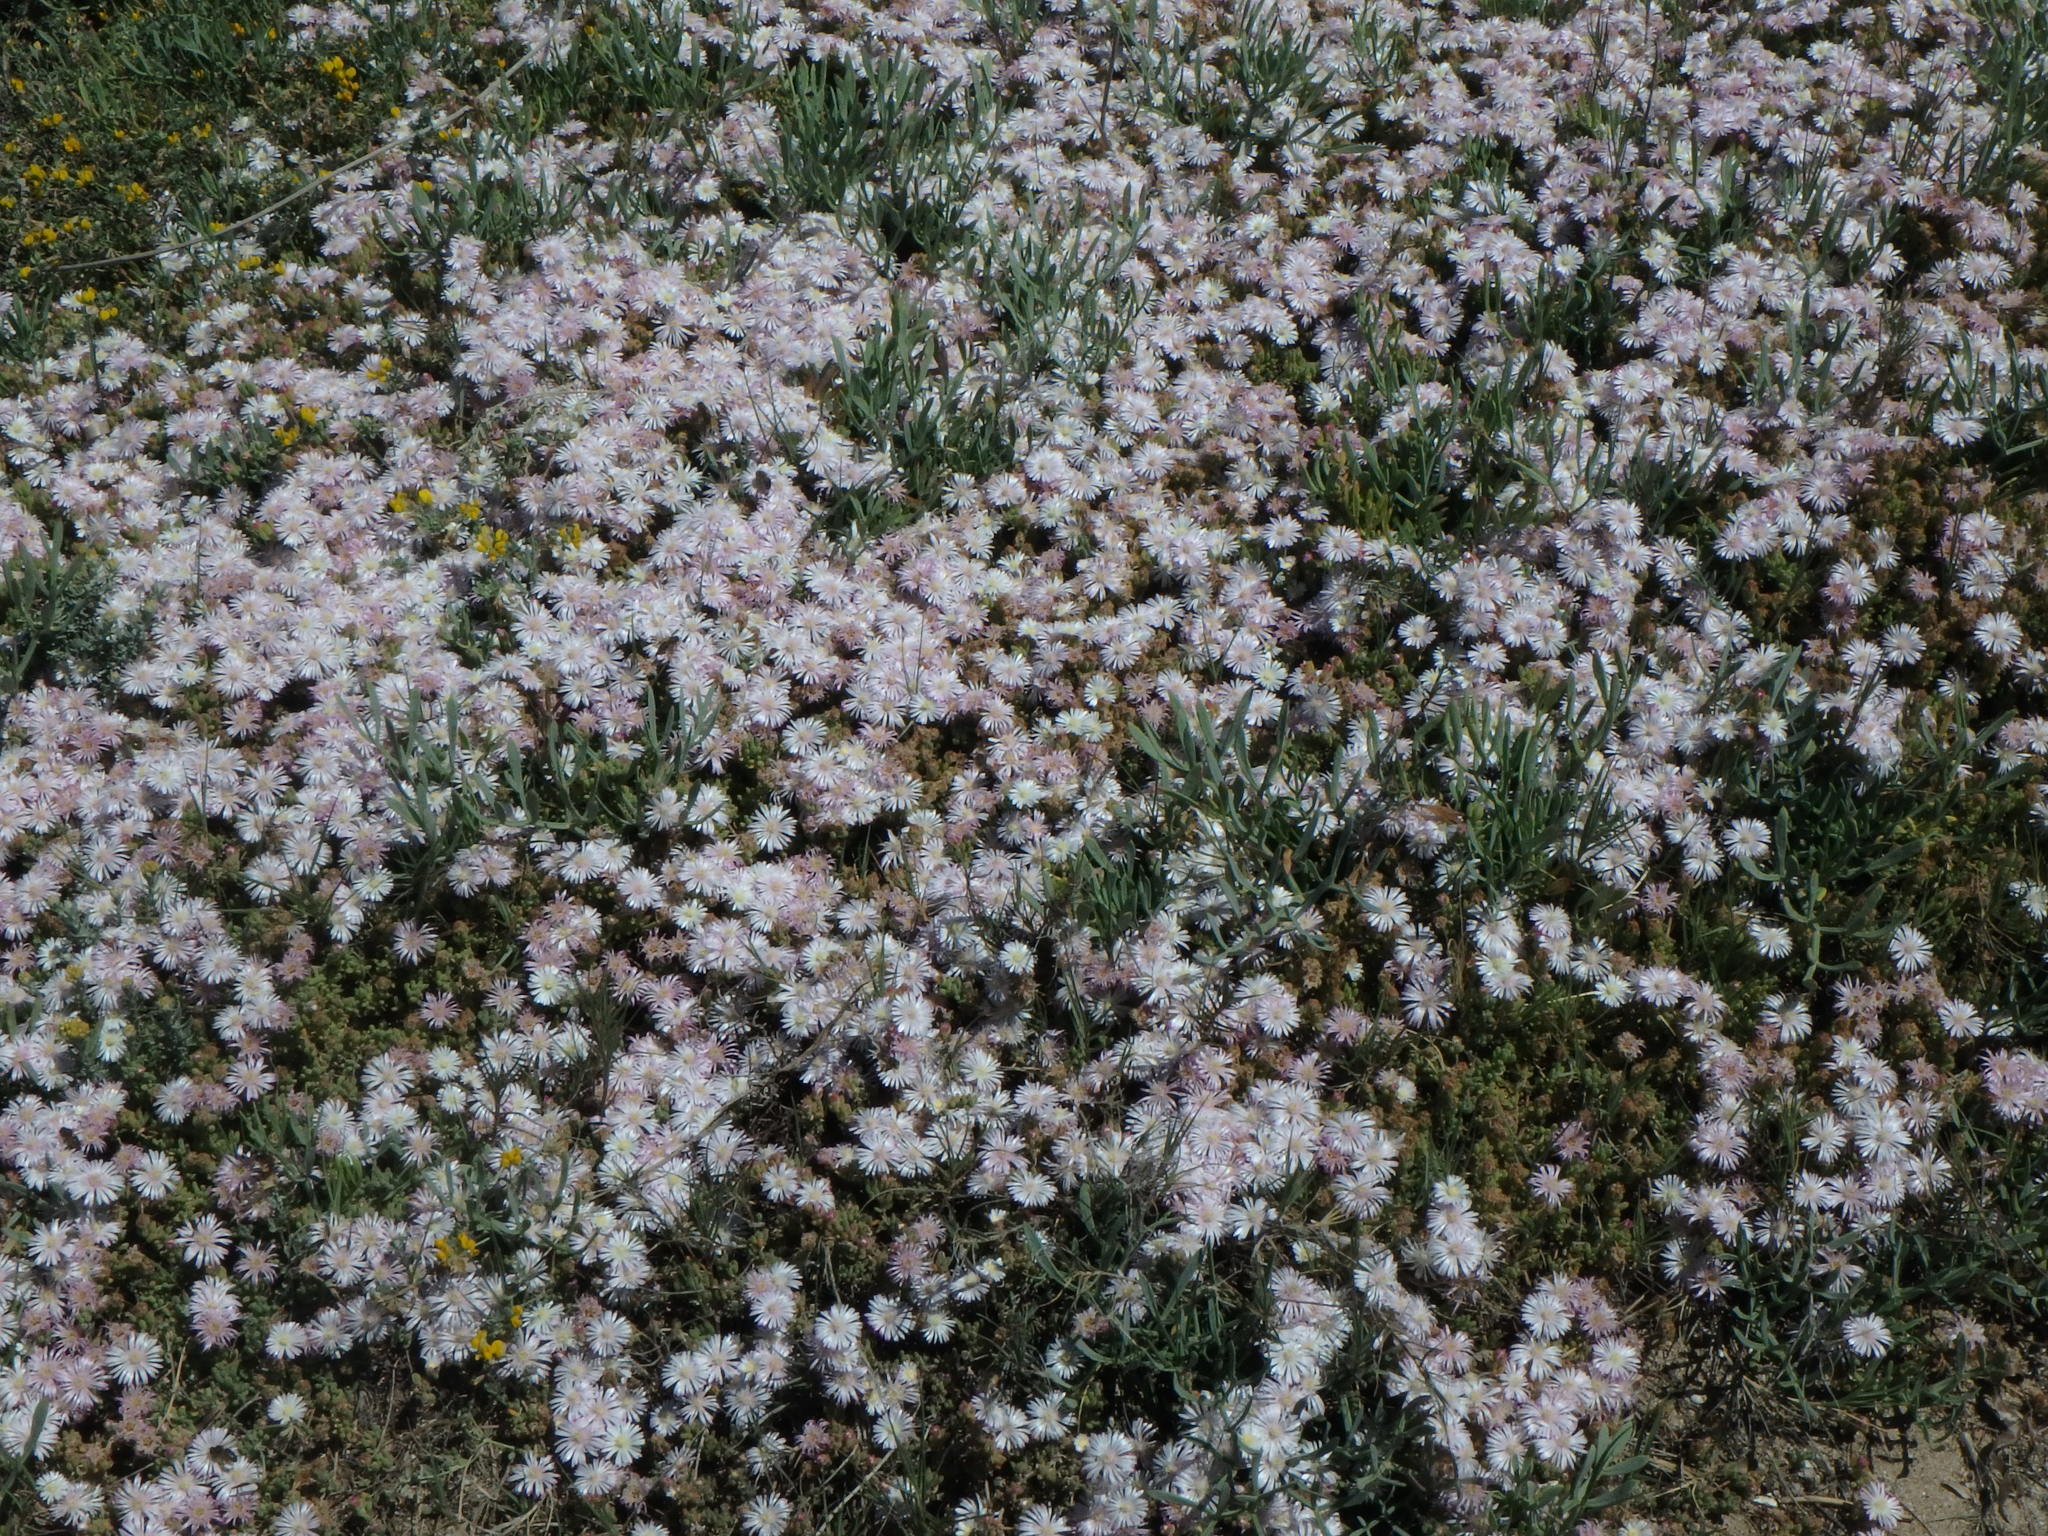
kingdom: Plantae
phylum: Tracheophyta
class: Magnoliopsida
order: Caryophyllales
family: Aizoaceae
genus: Mesembryanthemum
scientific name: Mesembryanthemum nodiflorum
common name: Slenderleaf iceplant
